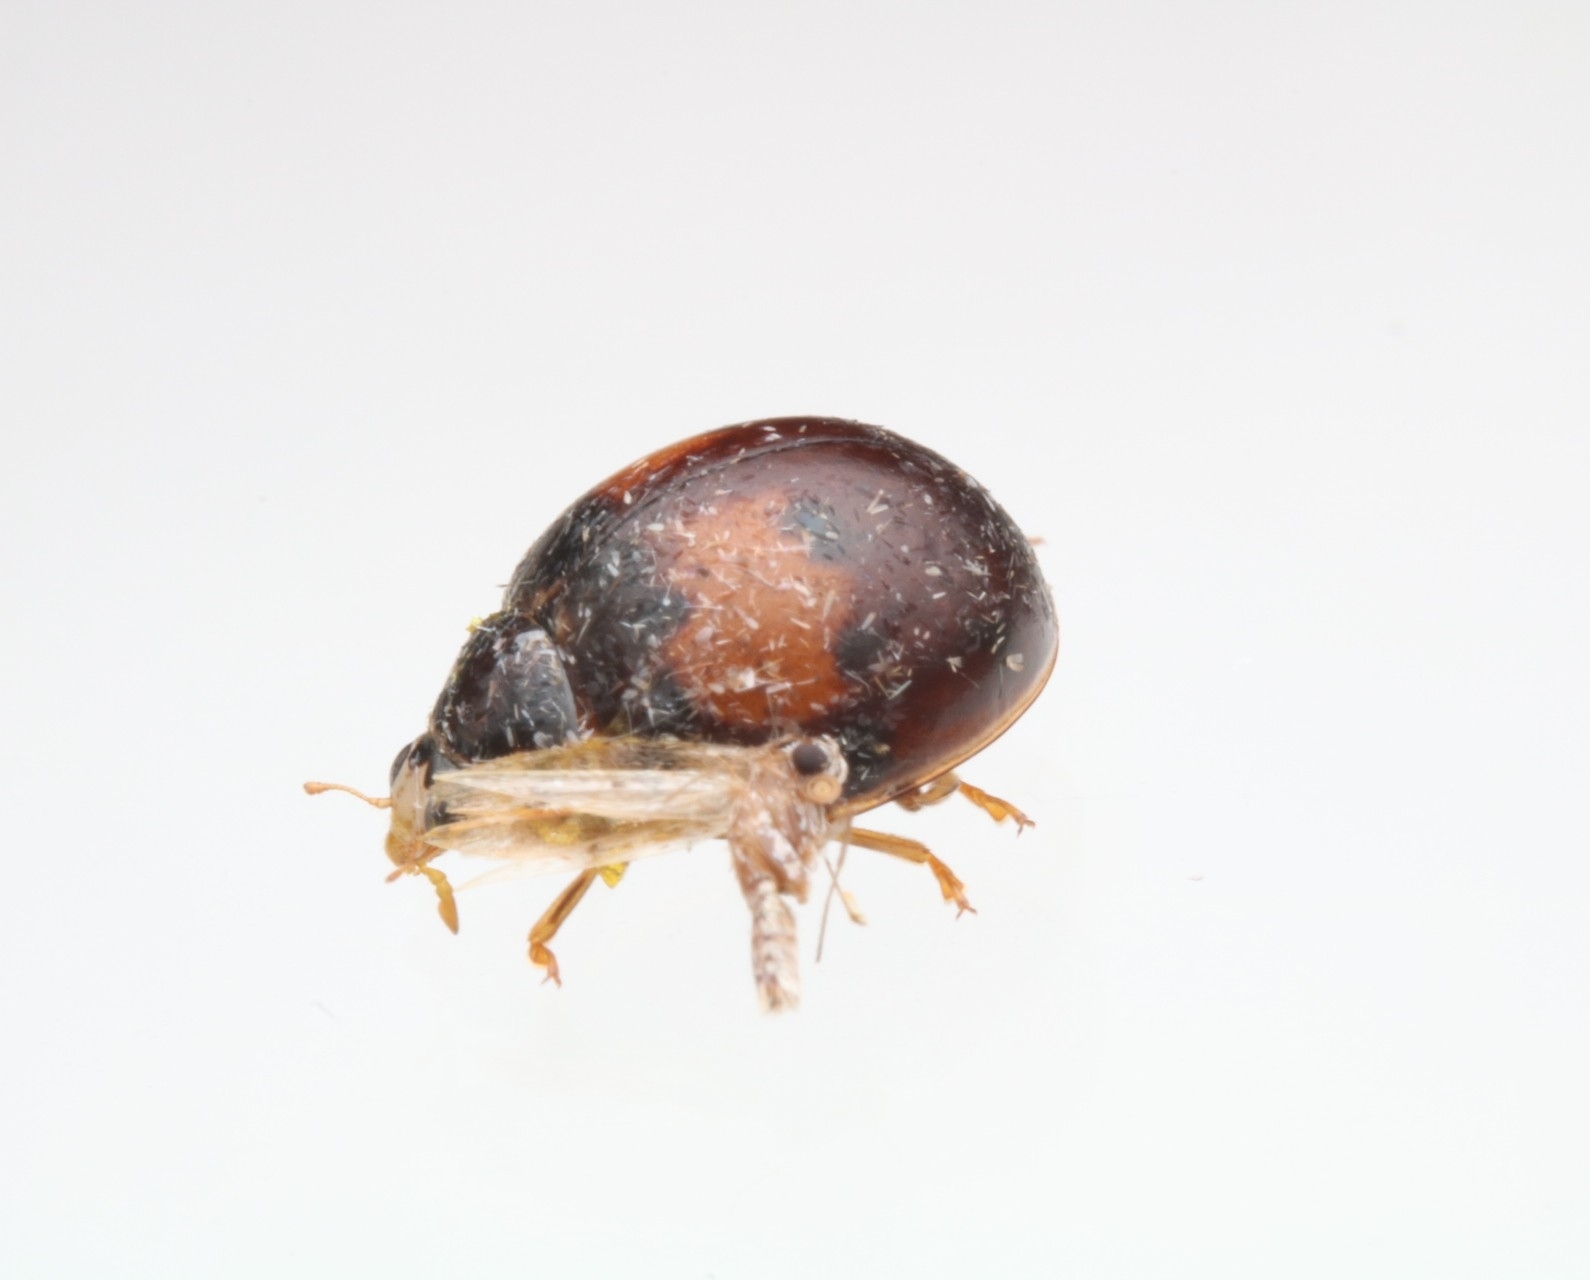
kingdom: Animalia
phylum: Arthropoda
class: Insecta
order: Coleoptera
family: Coccinellidae
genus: Olla
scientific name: Olla v-nigrum
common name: Ashy gray lady beetle
